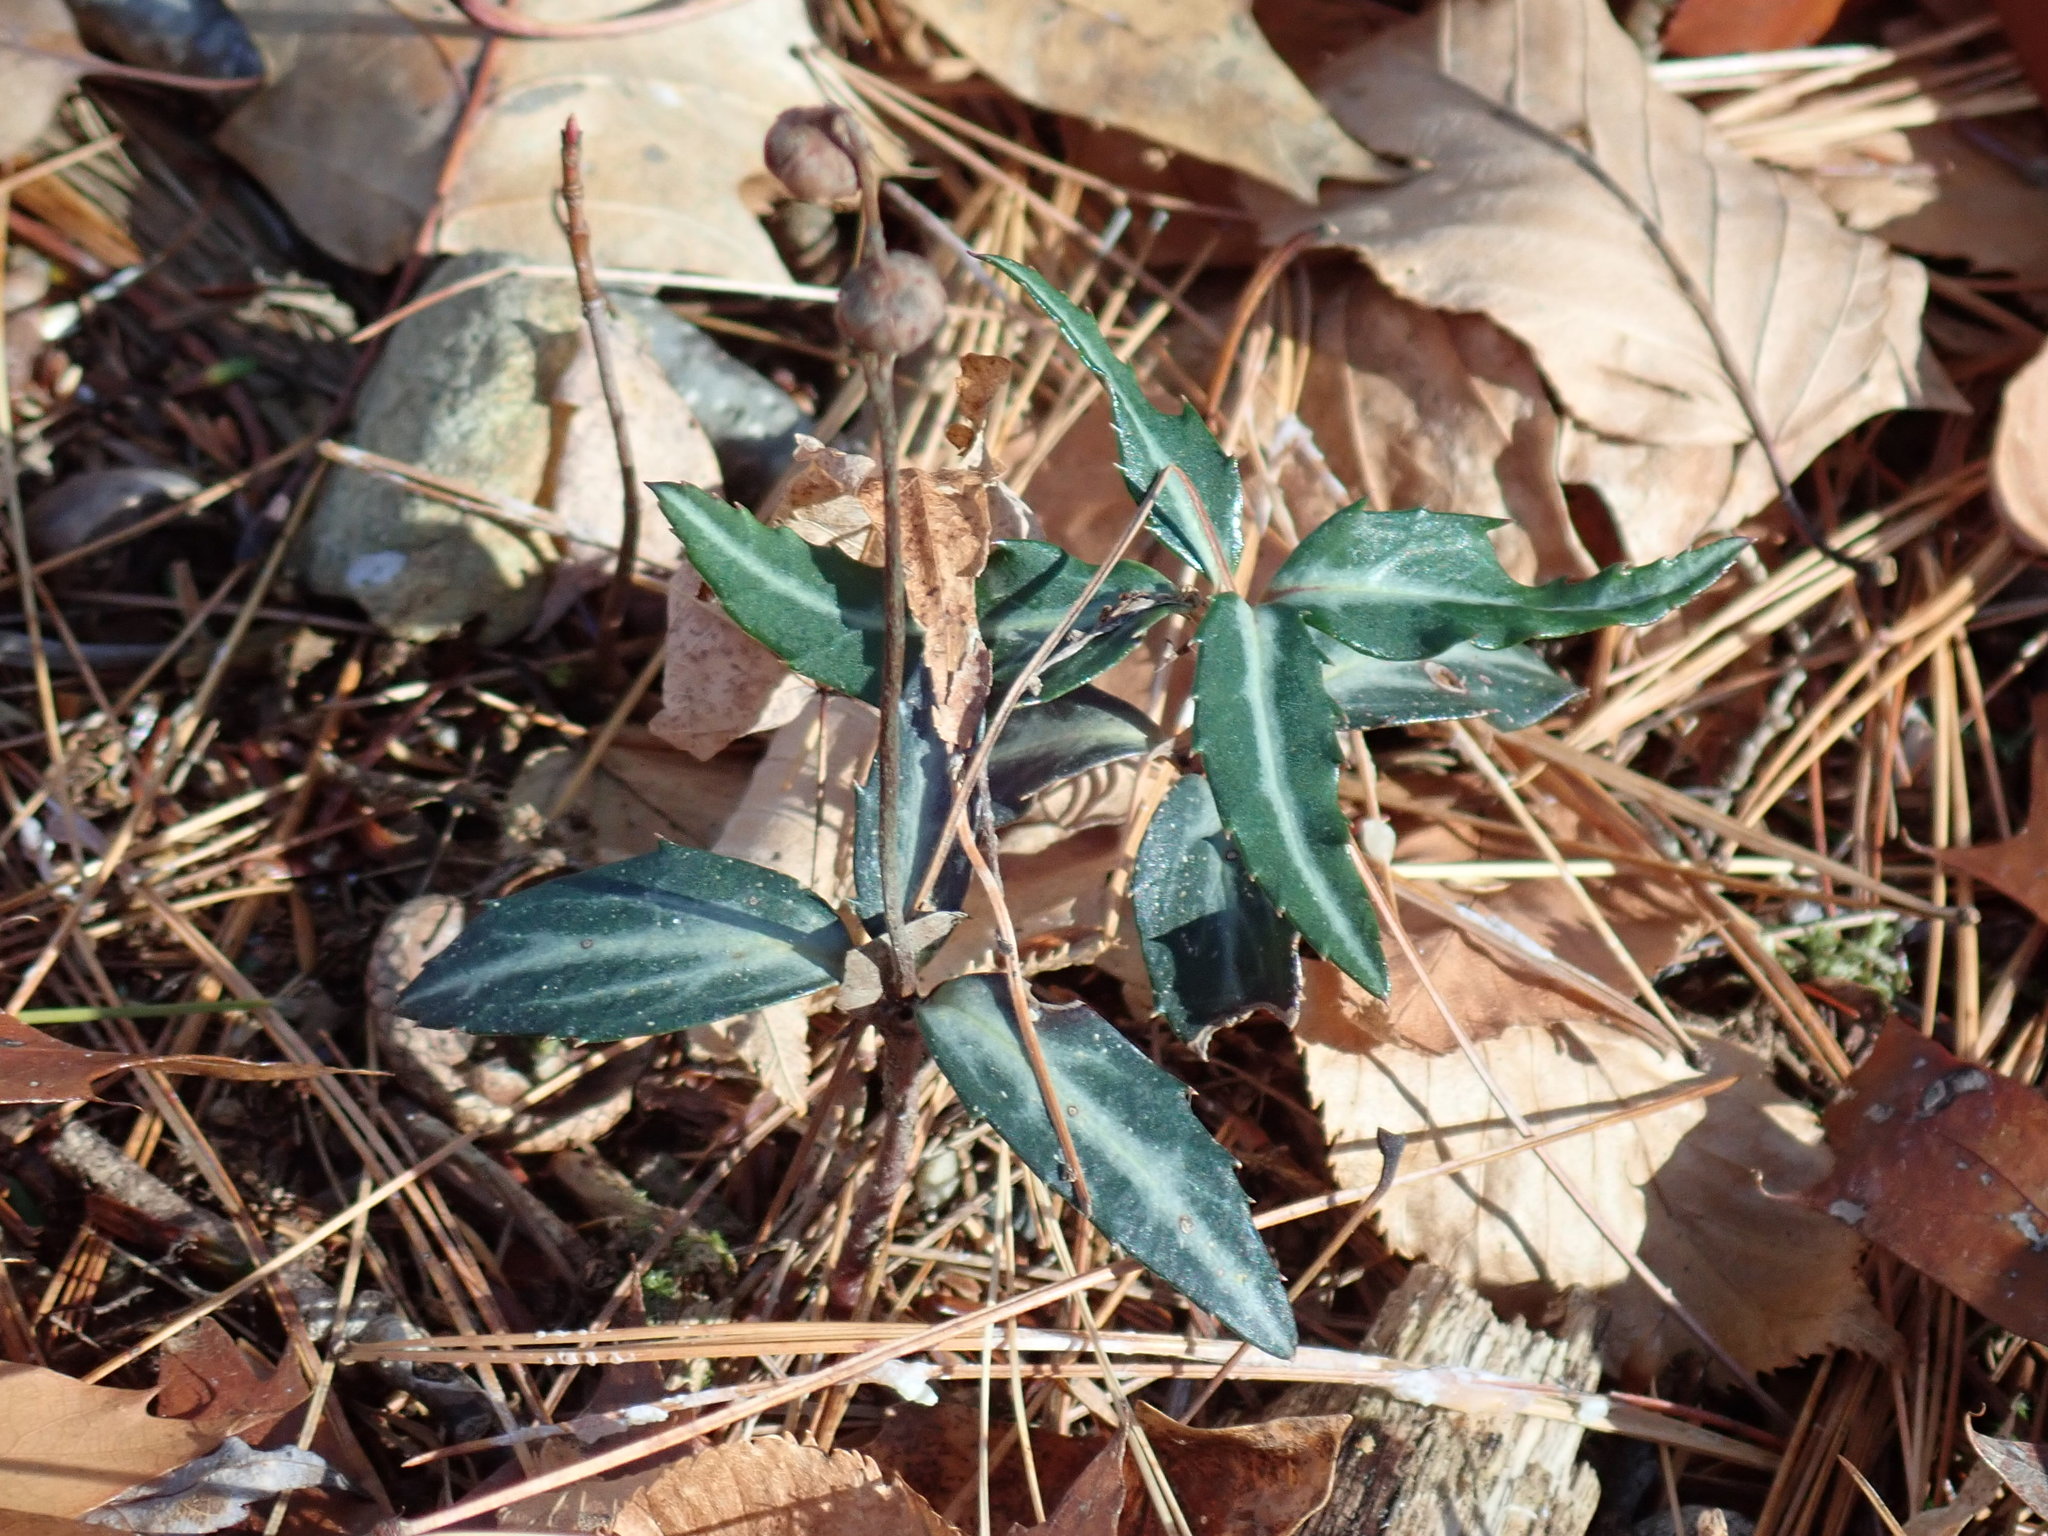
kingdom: Plantae
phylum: Tracheophyta
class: Magnoliopsida
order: Ericales
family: Ericaceae
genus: Chimaphila
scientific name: Chimaphila maculata
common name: Spotted pipsissewa
